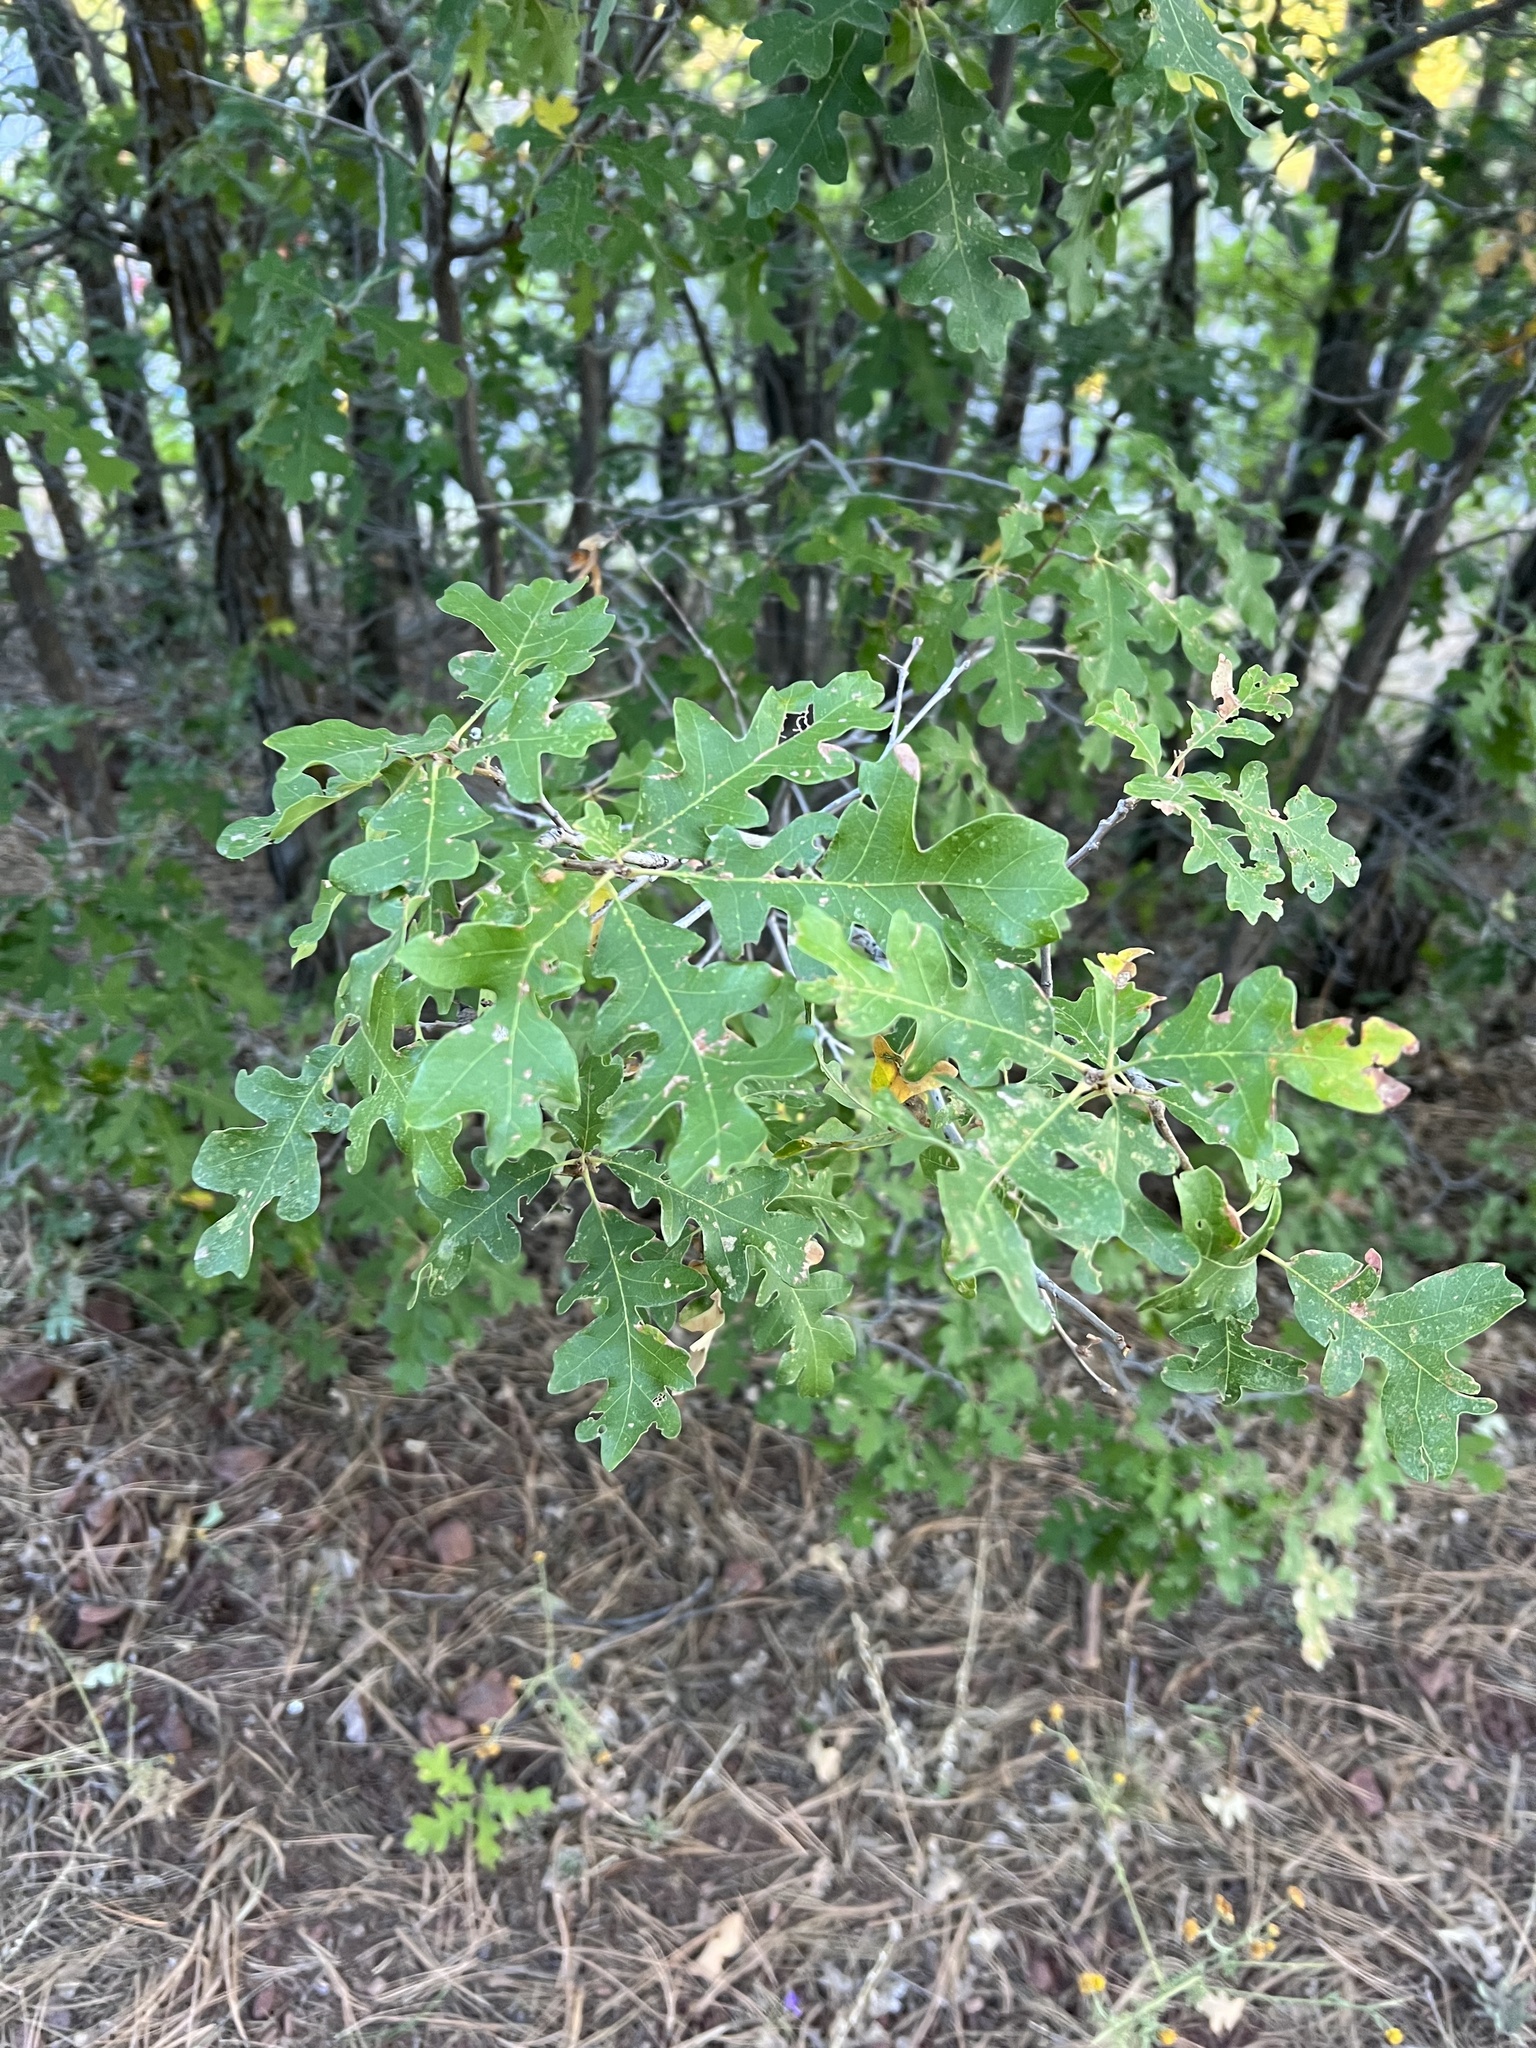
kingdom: Plantae
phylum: Tracheophyta
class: Magnoliopsida
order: Fagales
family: Fagaceae
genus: Quercus
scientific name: Quercus gambelii
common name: Gambel oak
